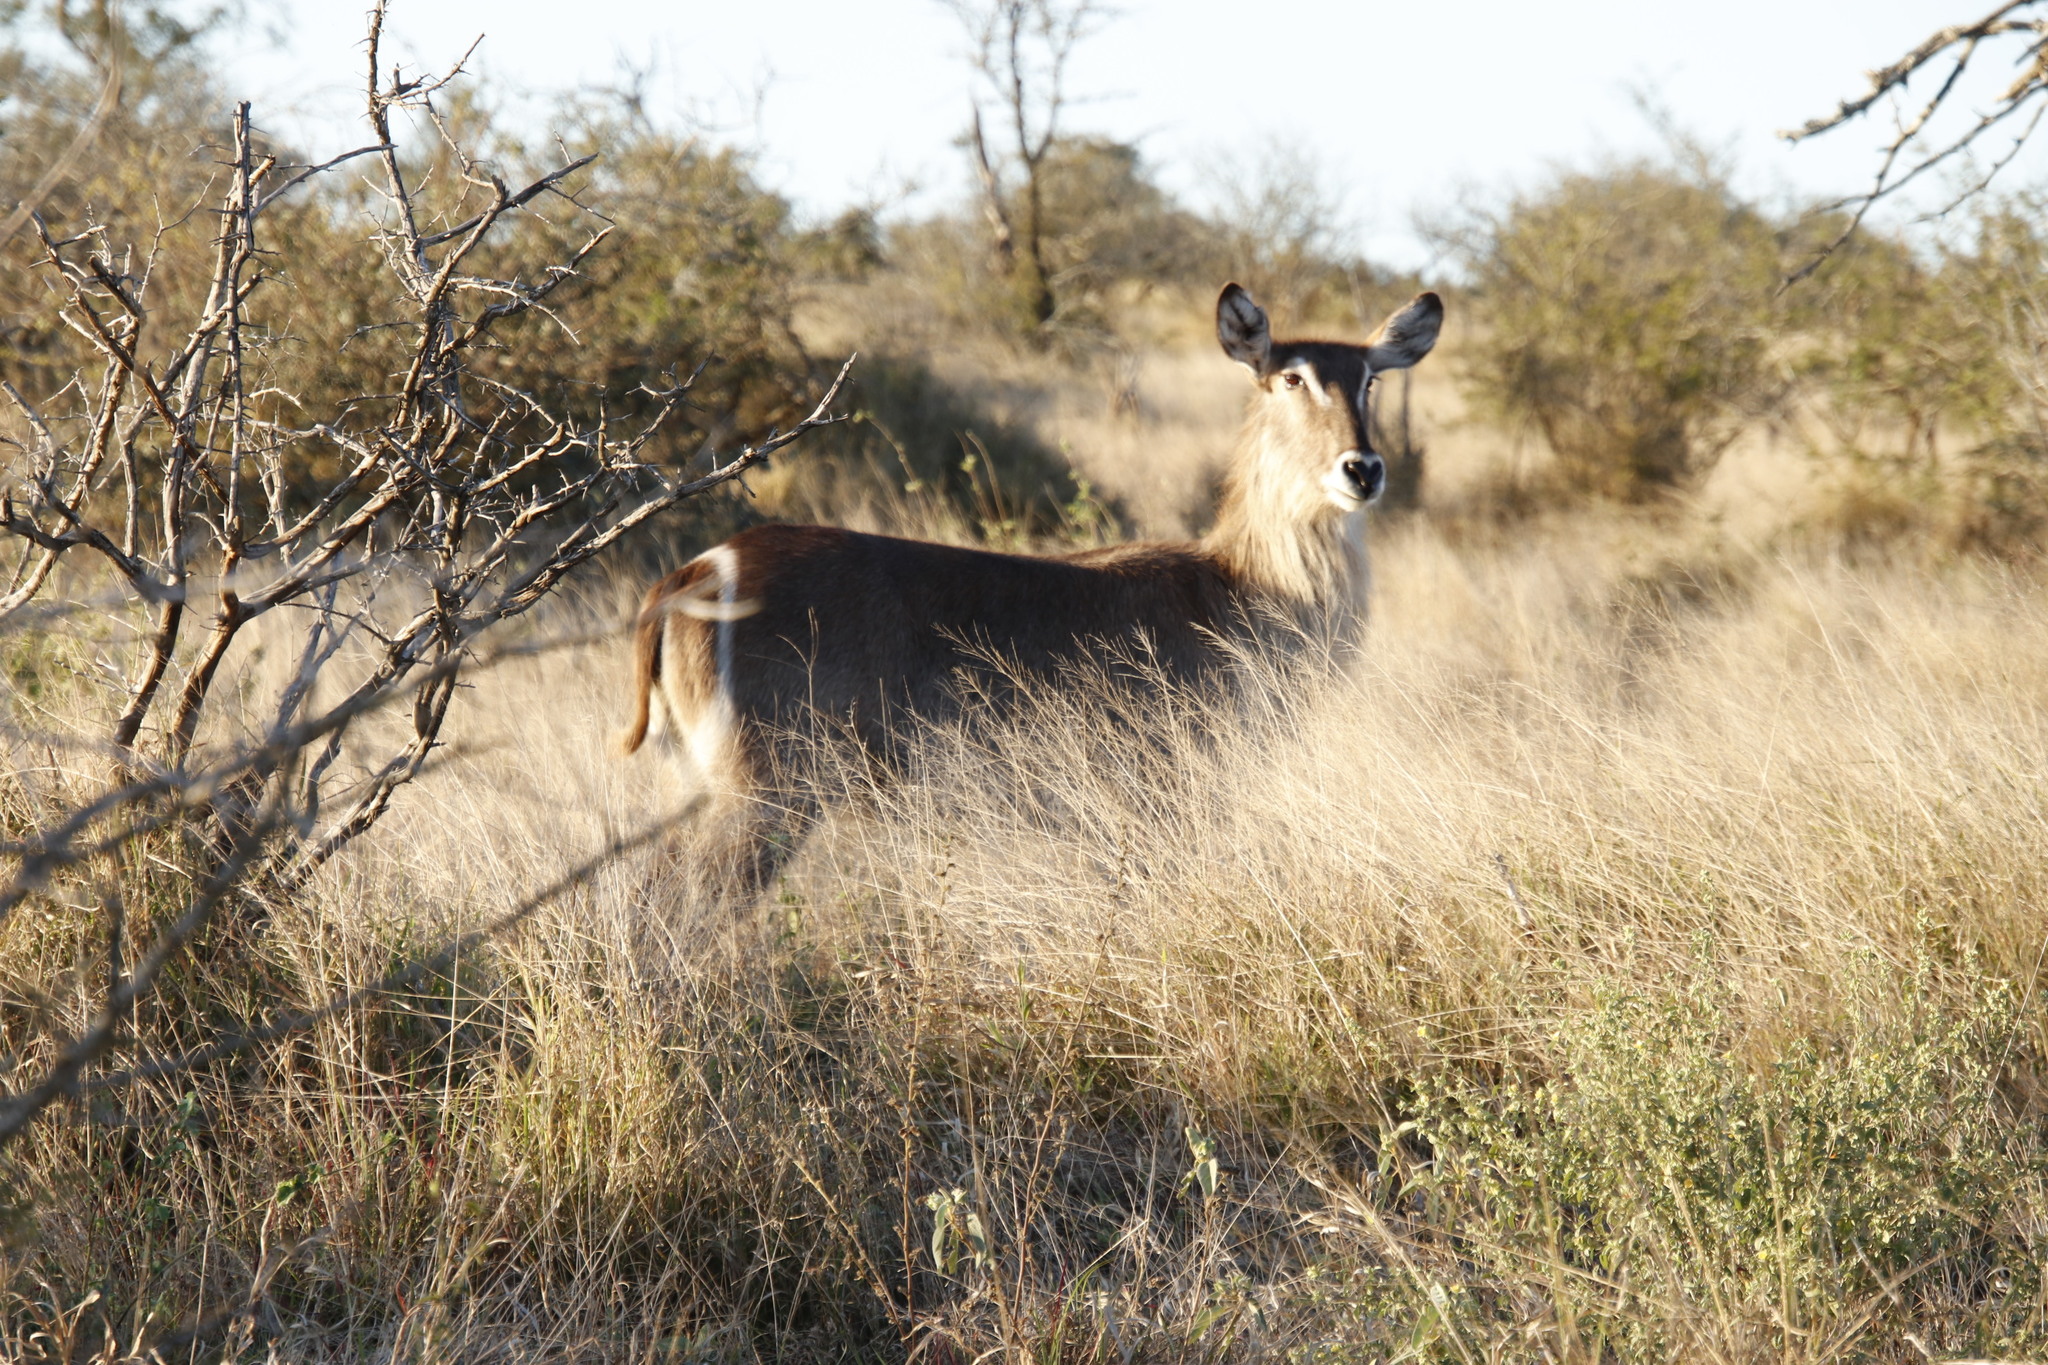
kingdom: Animalia
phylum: Chordata
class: Mammalia
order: Artiodactyla
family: Bovidae
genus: Kobus
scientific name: Kobus ellipsiprymnus
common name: Waterbuck
